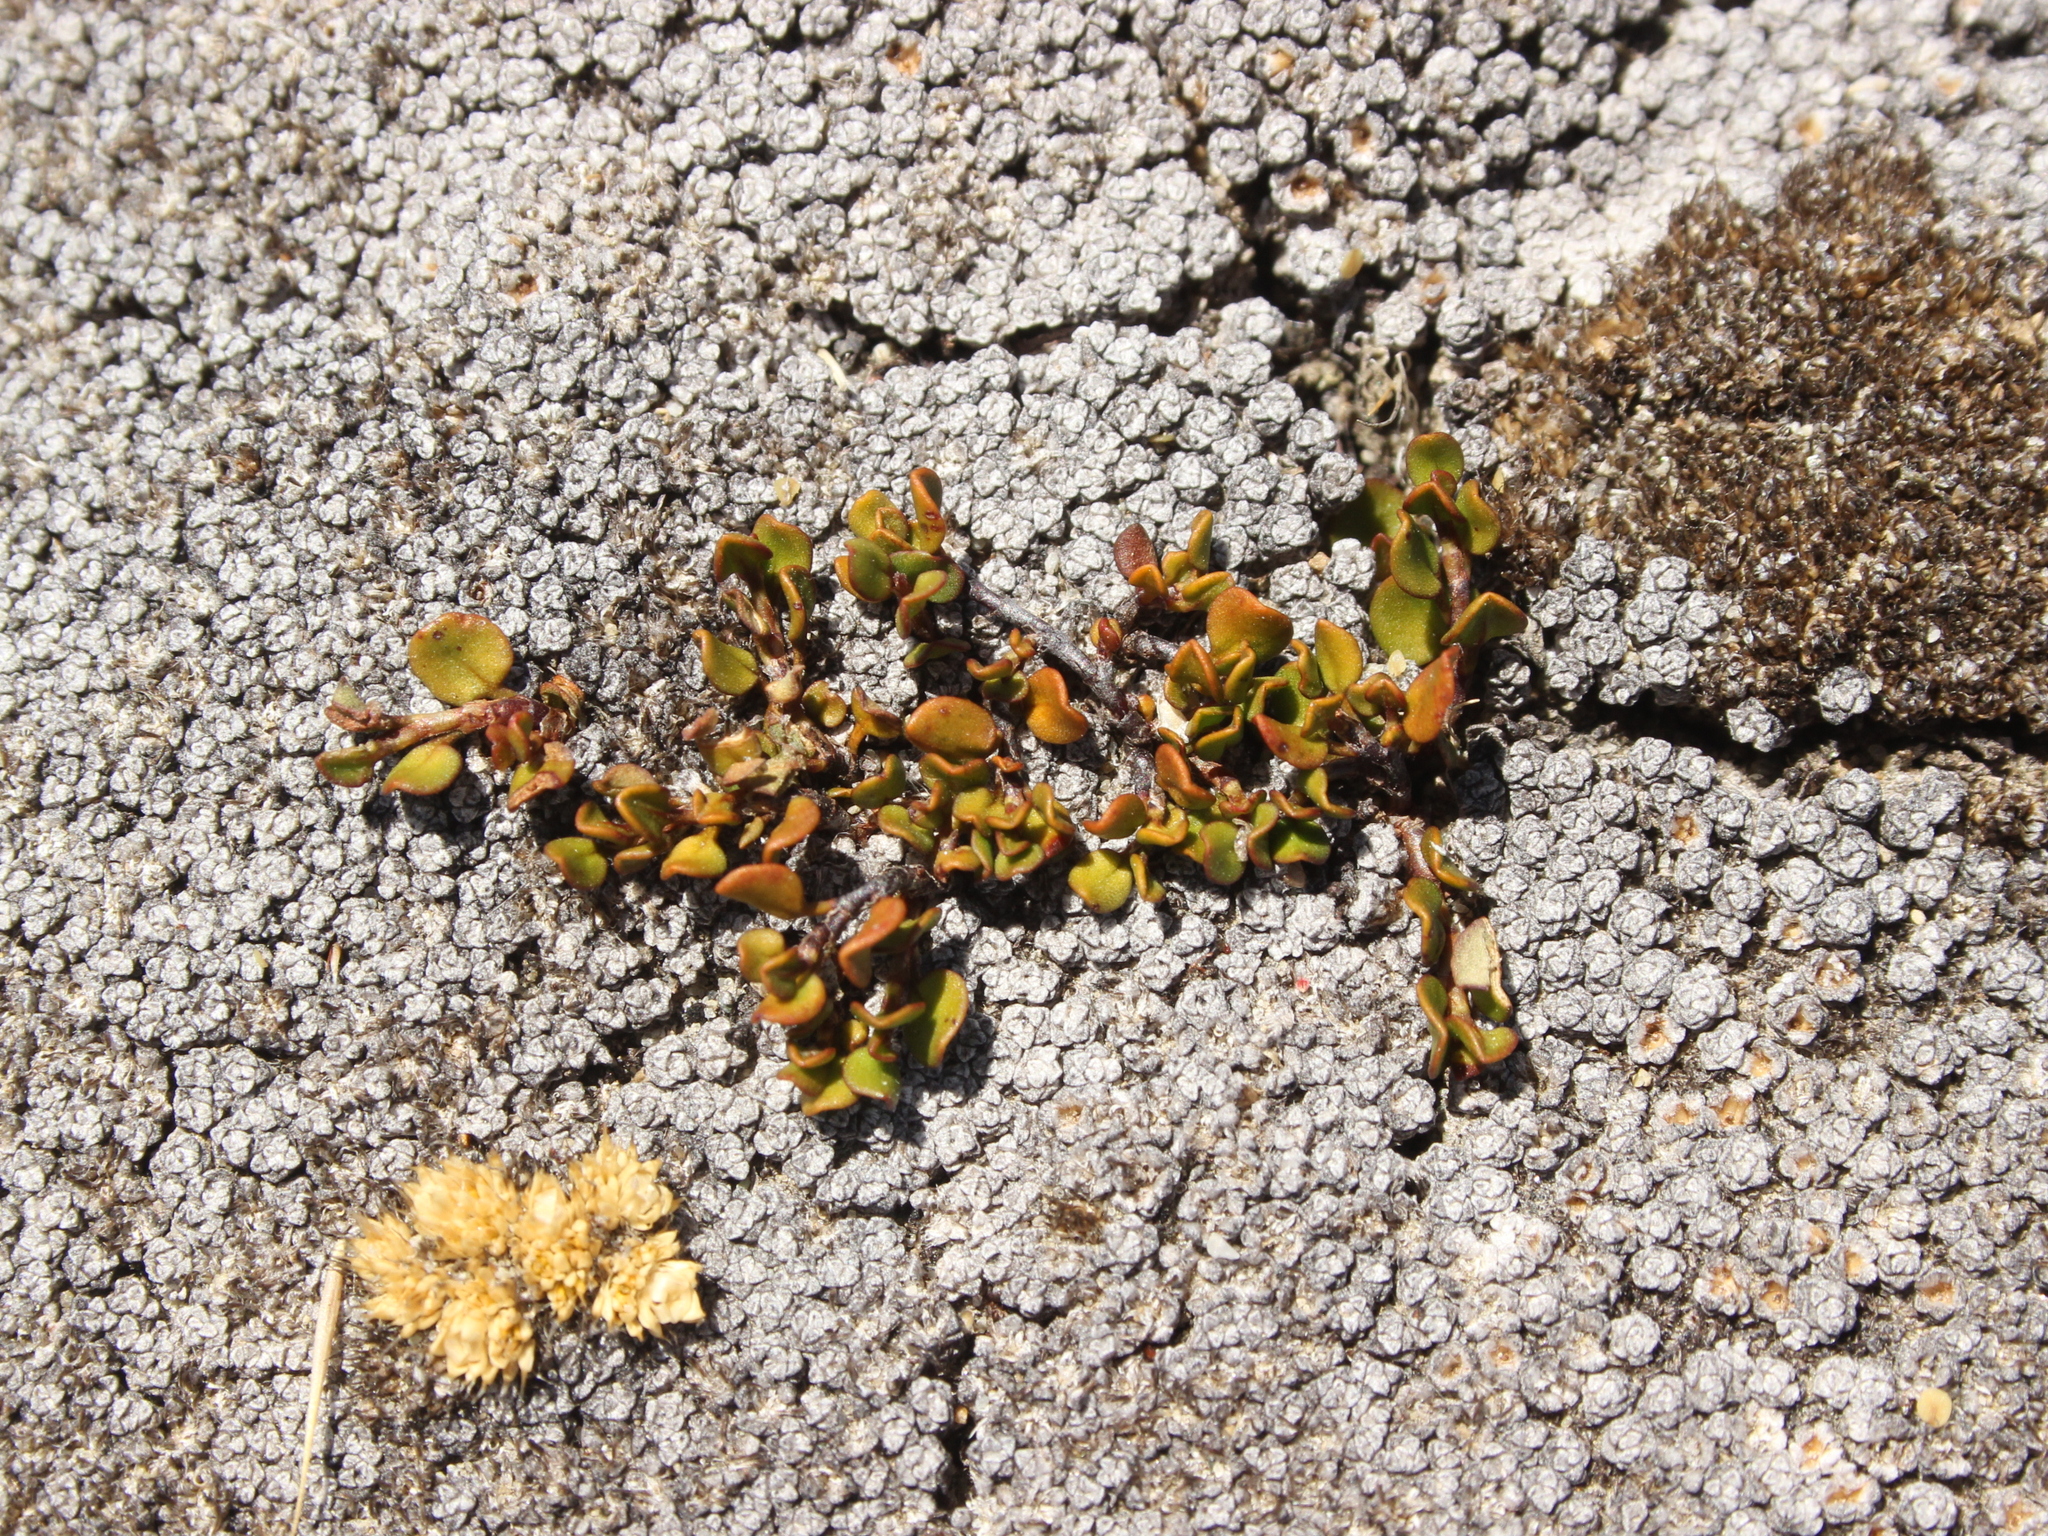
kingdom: Plantae
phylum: Tracheophyta
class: Magnoliopsida
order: Caryophyllales
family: Polygonaceae
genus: Muehlenbeckia
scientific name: Muehlenbeckia axillaris
